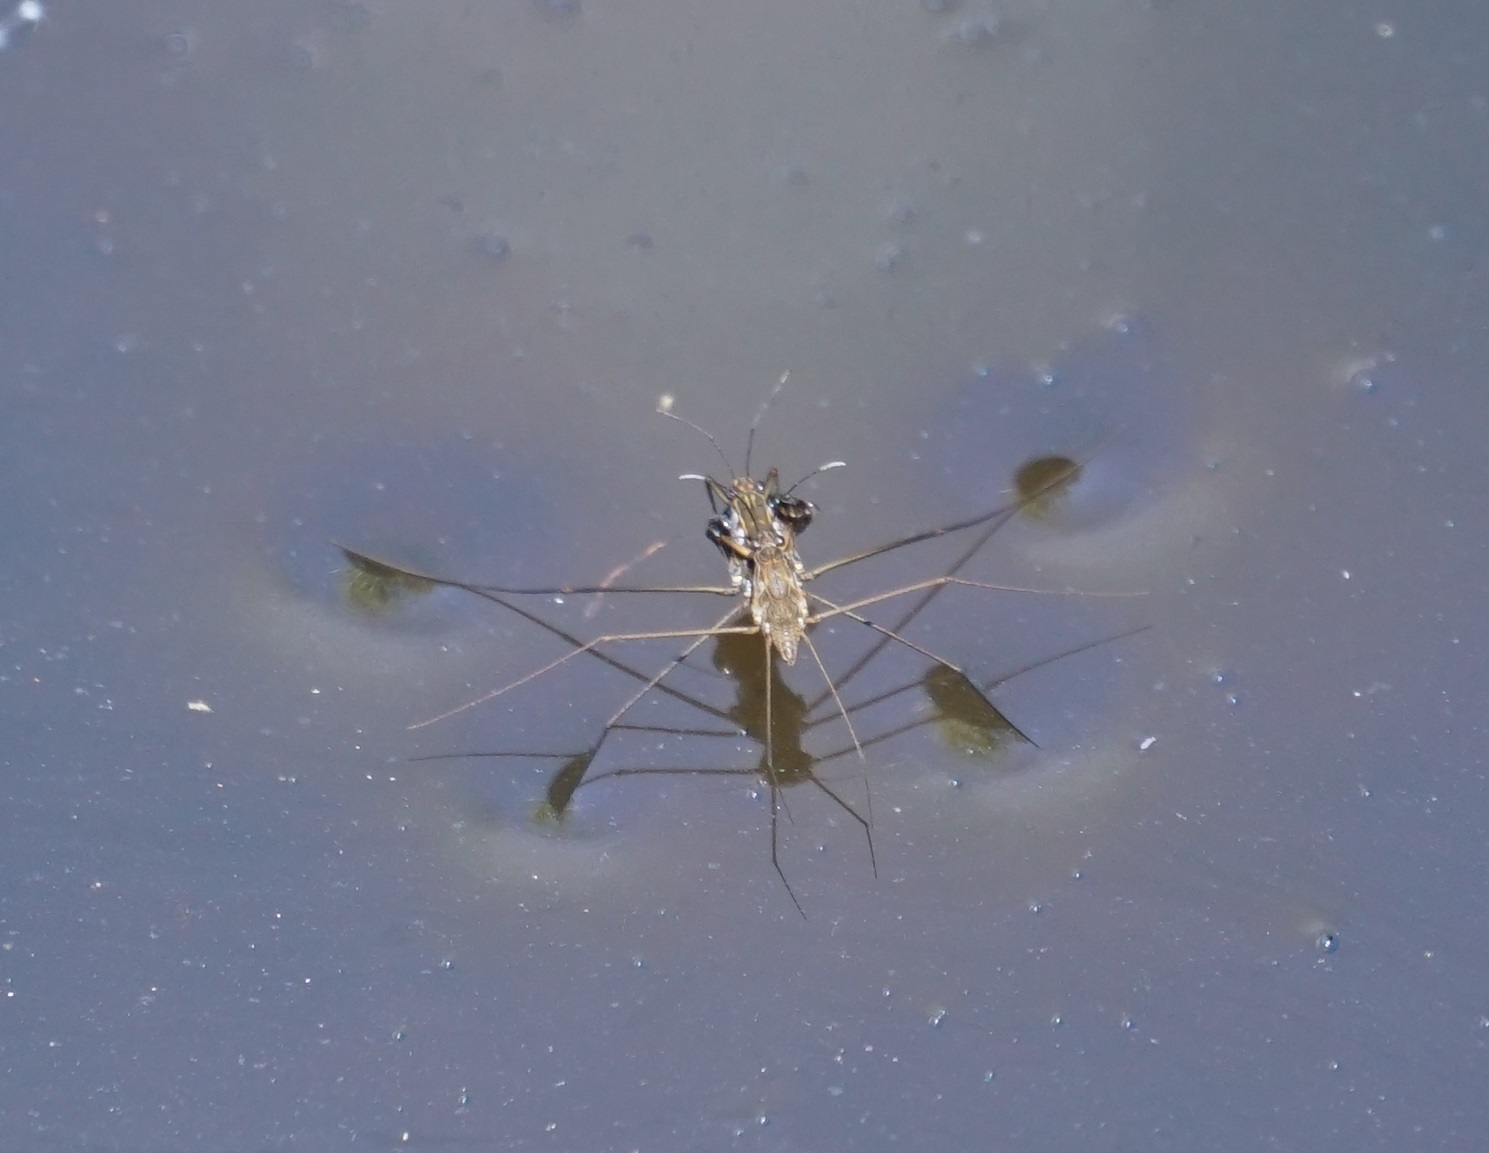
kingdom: Animalia
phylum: Arthropoda
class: Insecta
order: Hemiptera
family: Gerridae
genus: Tenagogerris
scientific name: Tenagogerris euphrosyne
